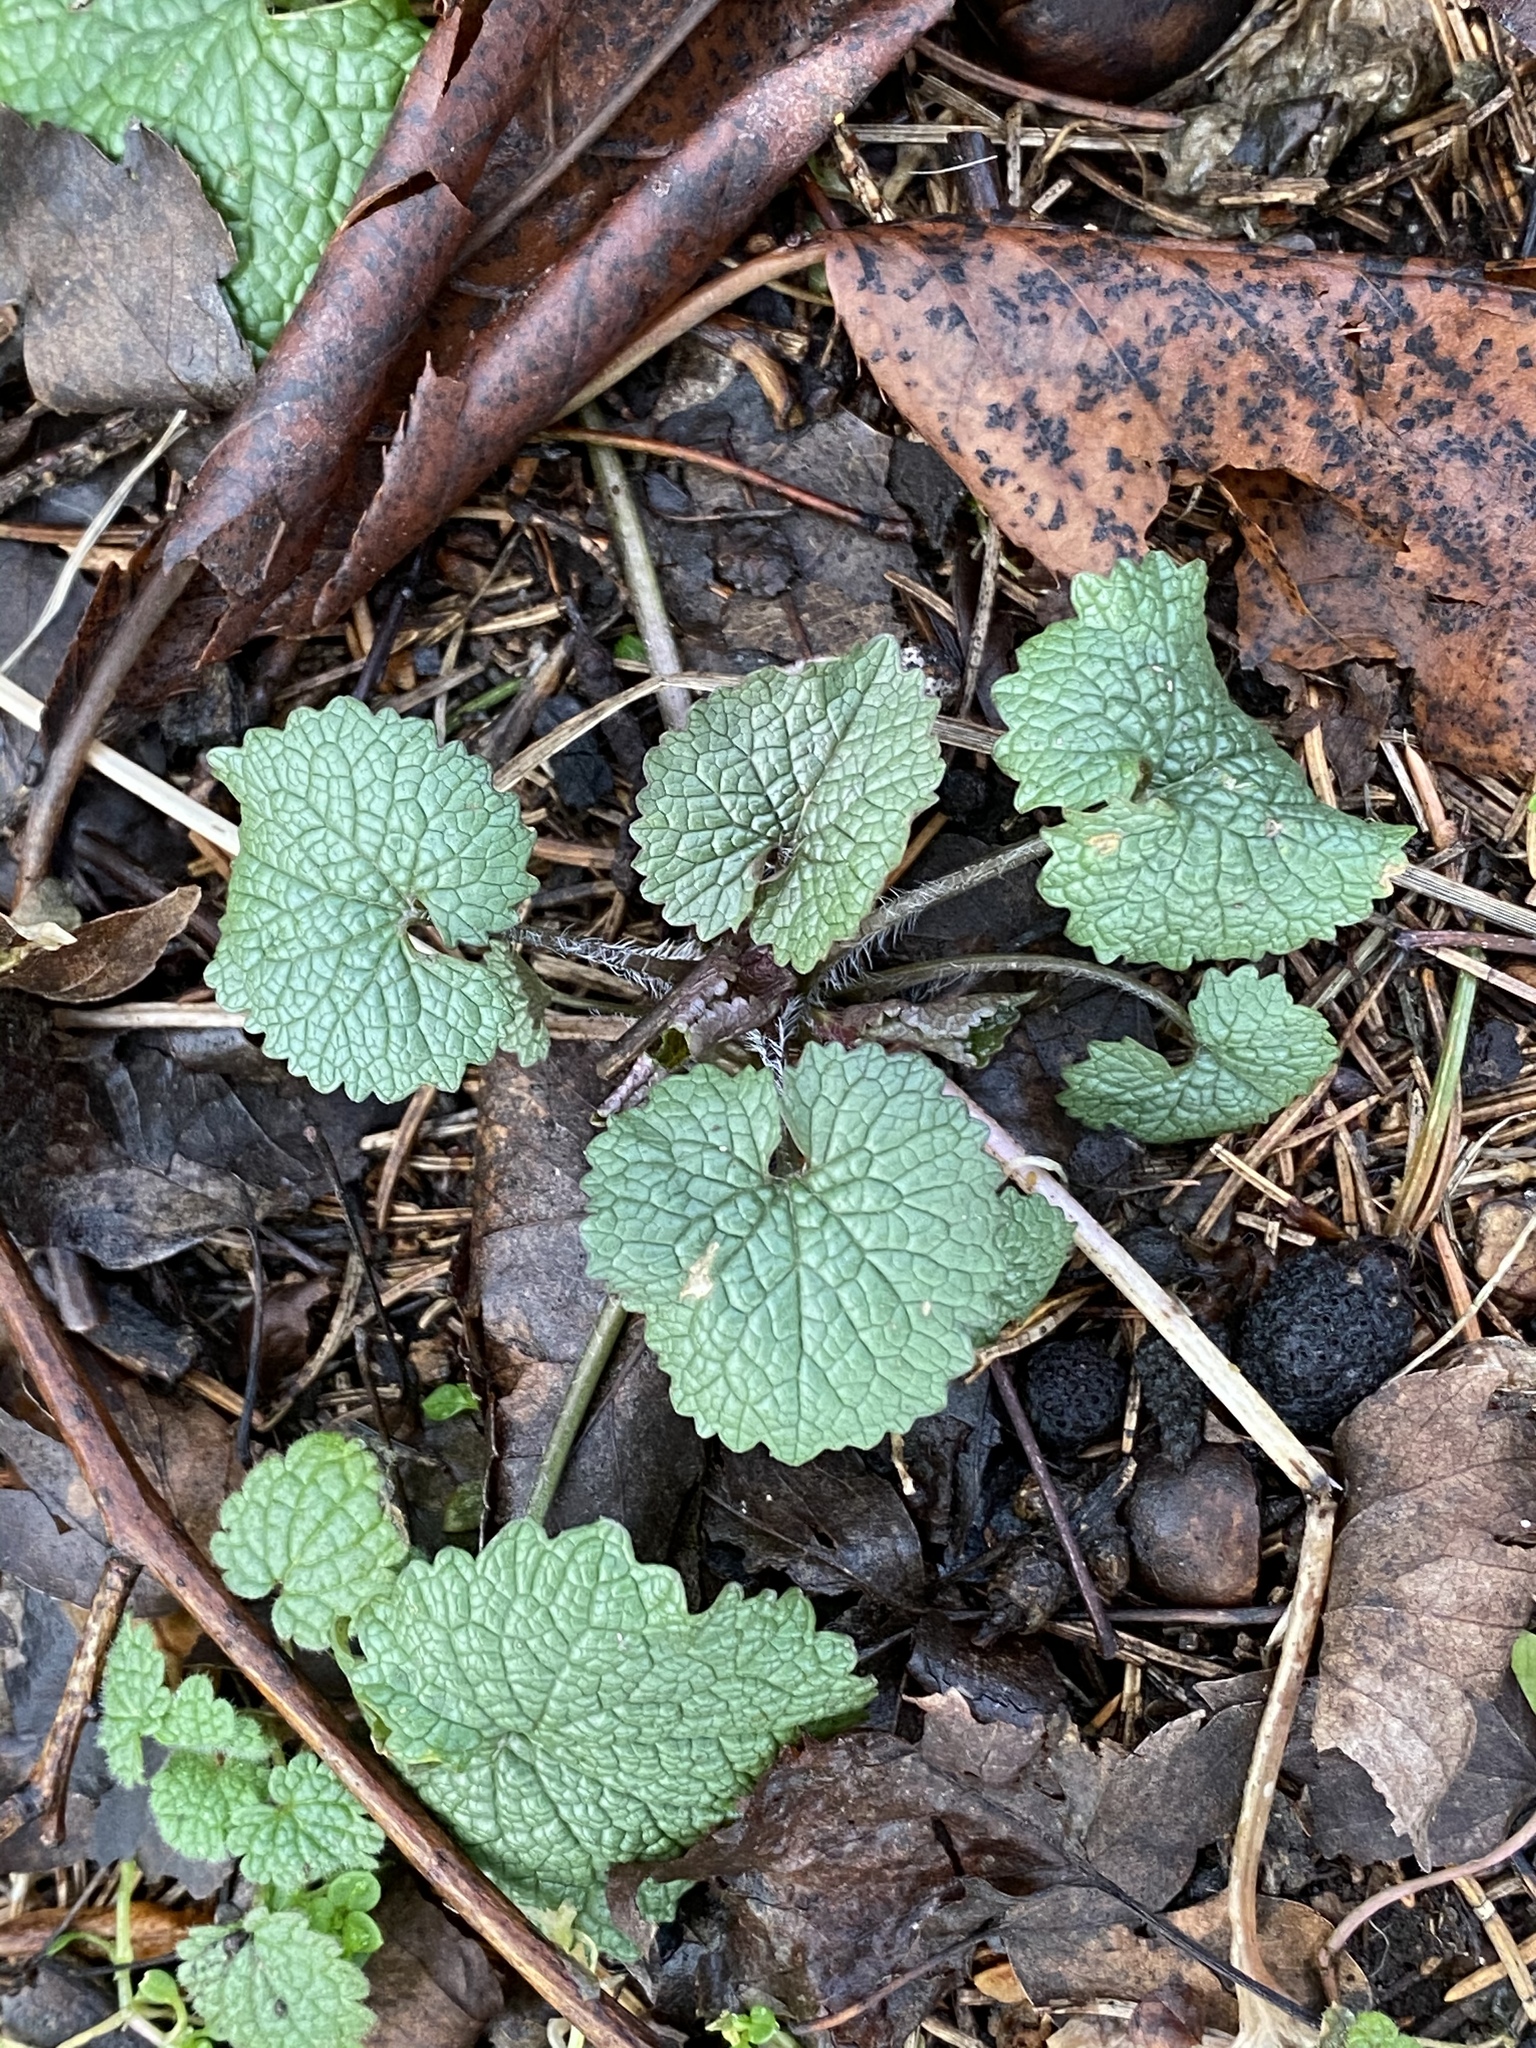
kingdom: Plantae
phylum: Tracheophyta
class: Magnoliopsida
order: Brassicales
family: Brassicaceae
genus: Alliaria
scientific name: Alliaria petiolata
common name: Garlic mustard
